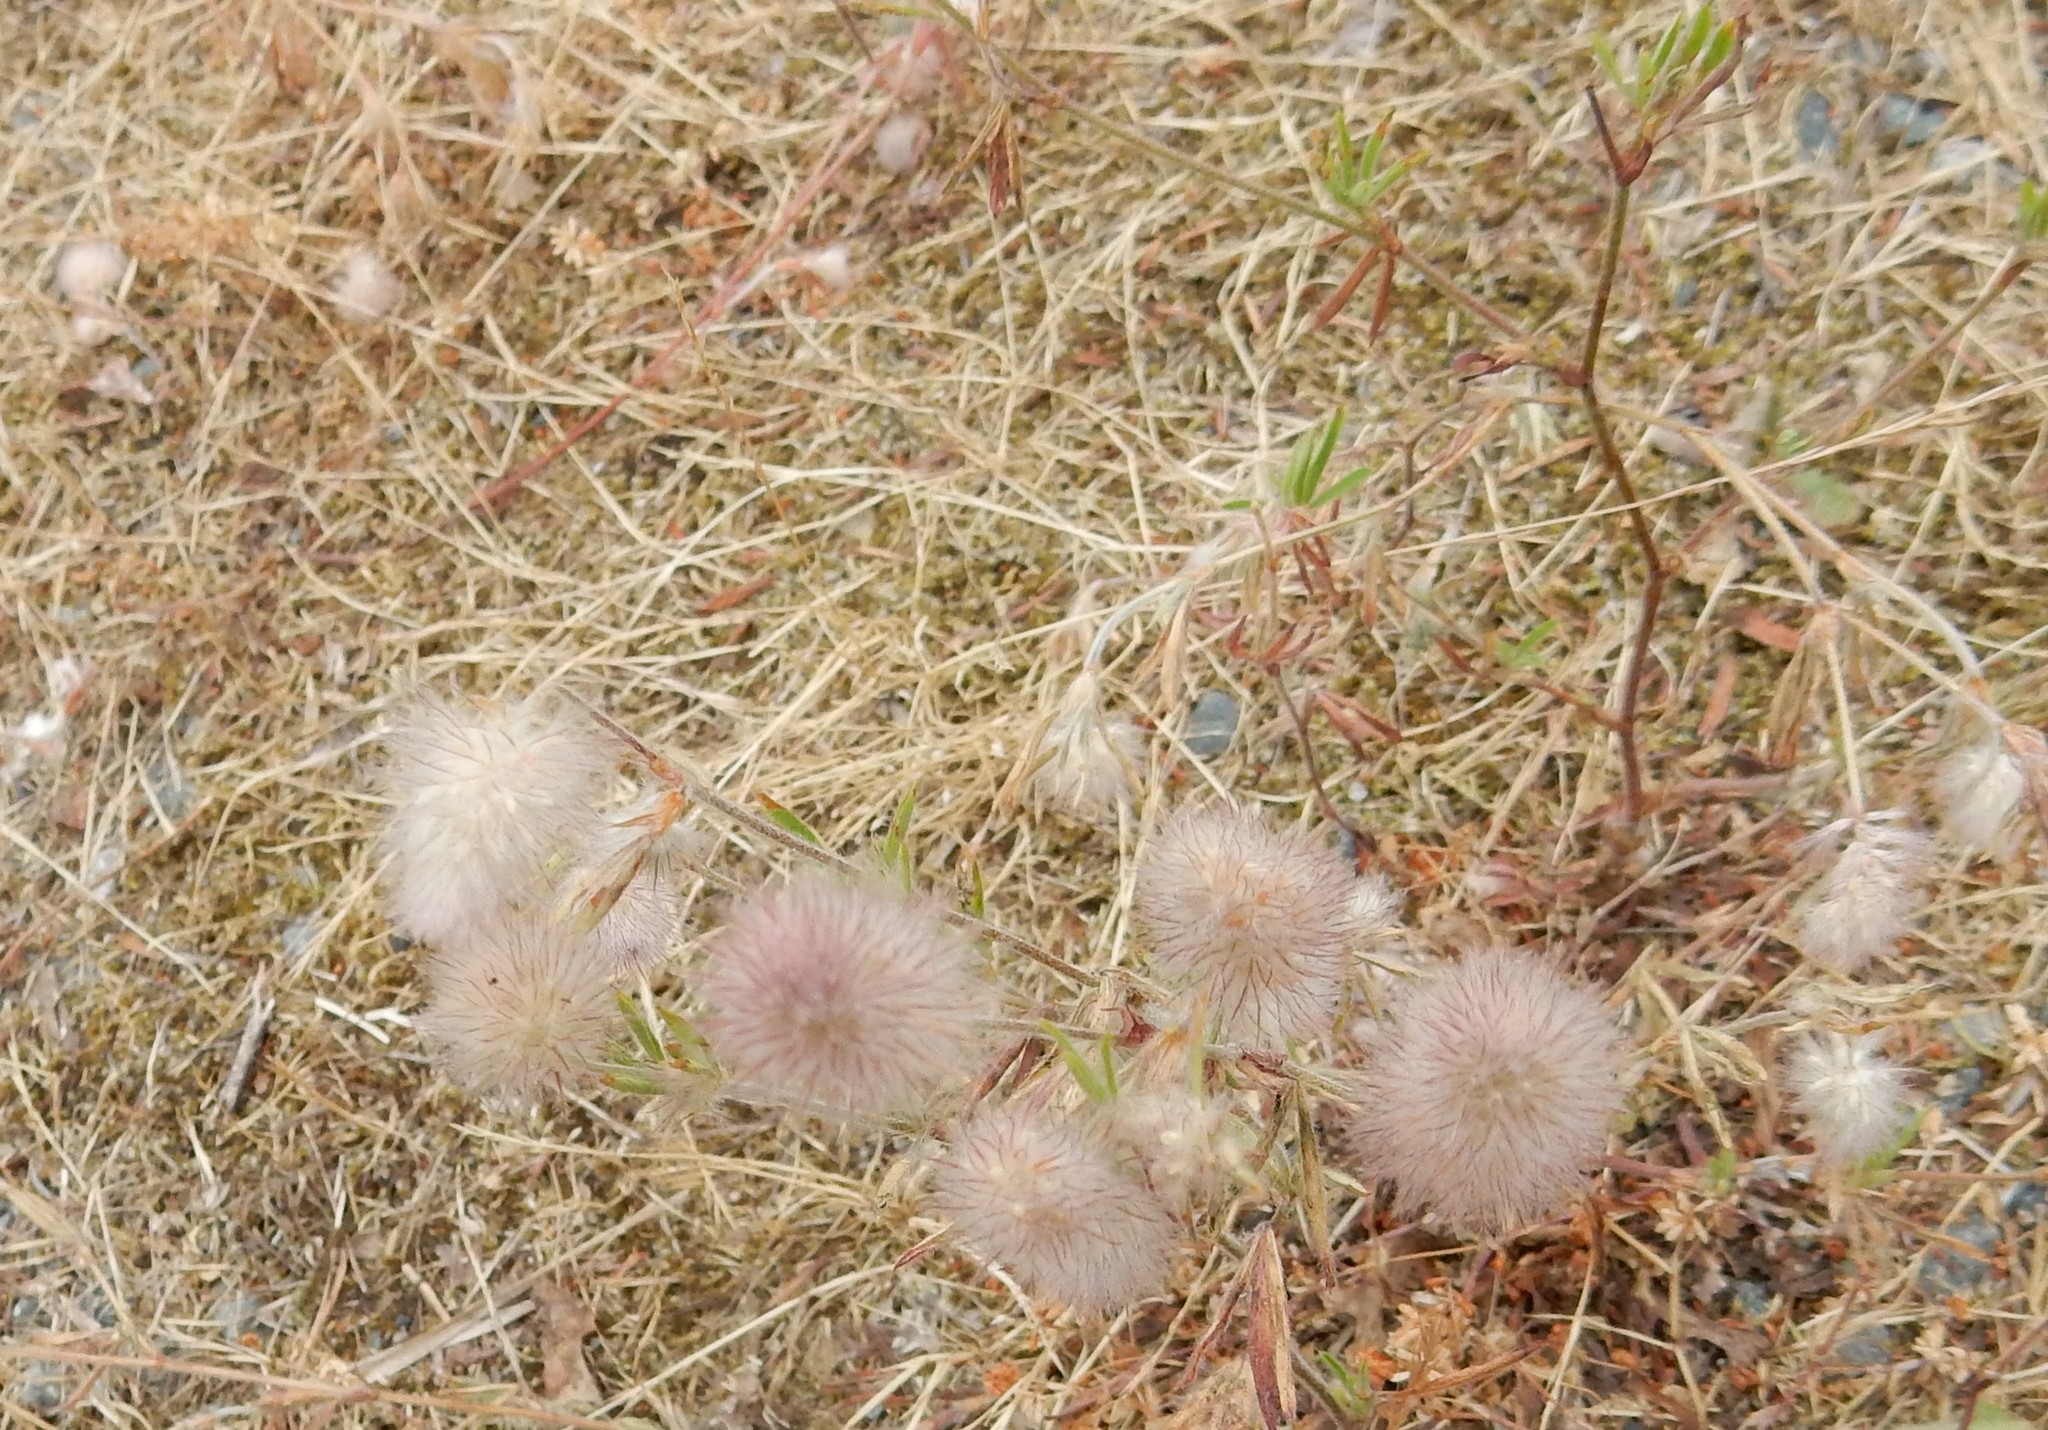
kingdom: Plantae
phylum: Tracheophyta
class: Magnoliopsida
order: Fabales
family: Fabaceae
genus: Trifolium
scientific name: Trifolium arvense
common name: Hare's-foot clover
